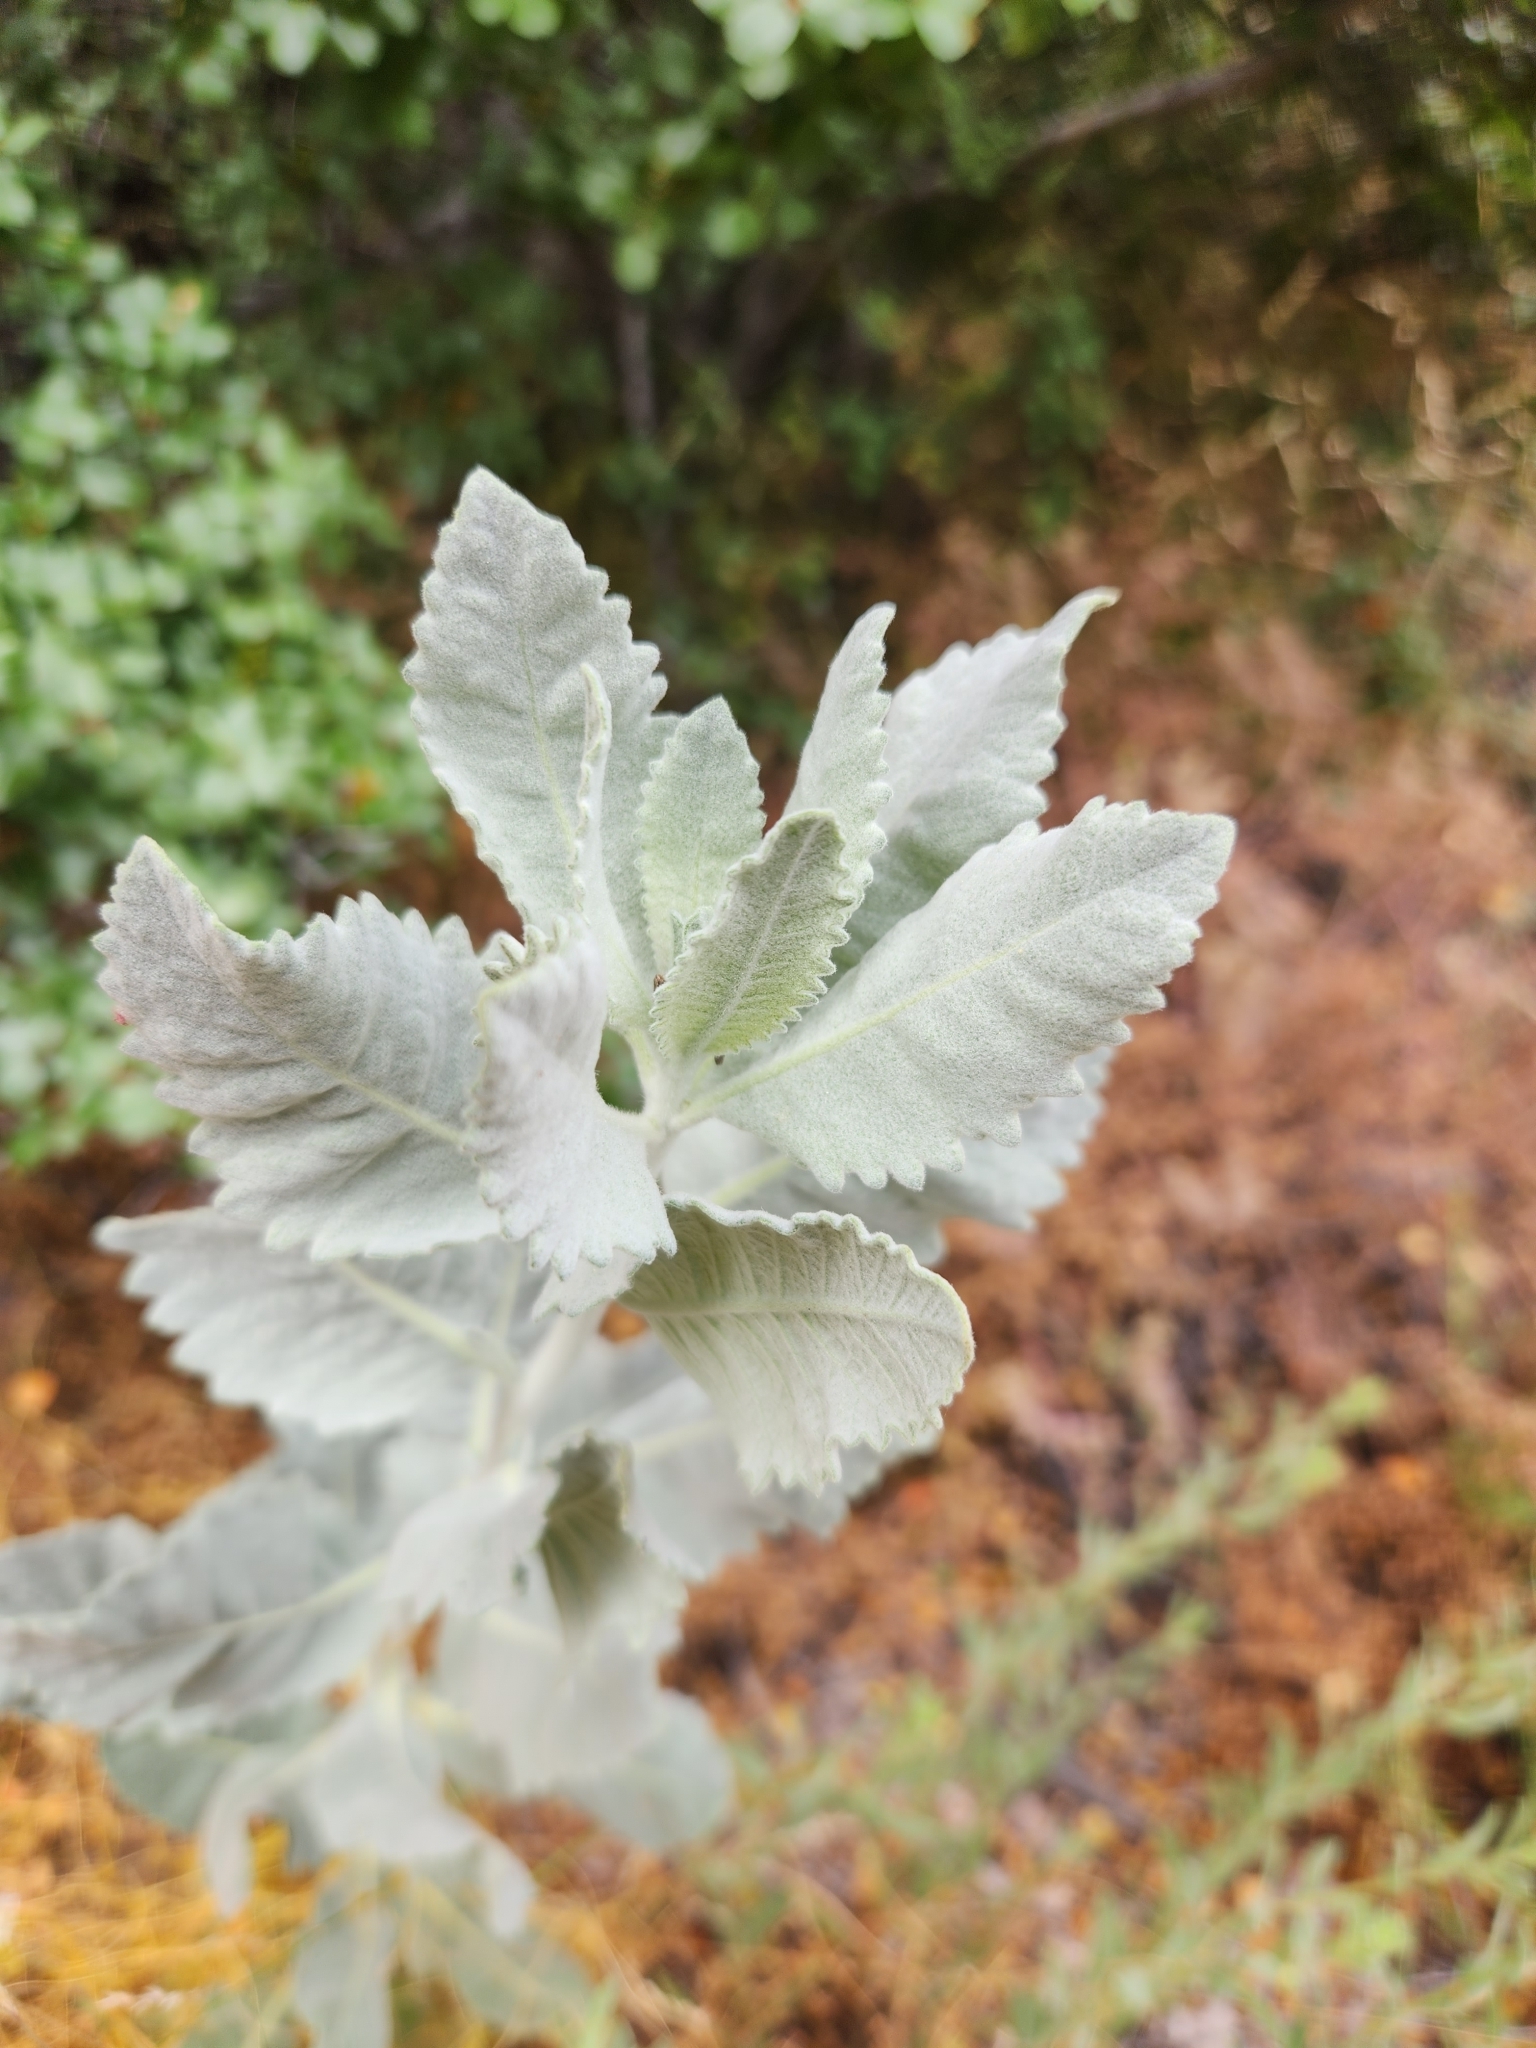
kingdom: Plantae
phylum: Tracheophyta
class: Magnoliopsida
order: Boraginales
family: Namaceae
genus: Eriodictyon
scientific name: Eriodictyon tomentosum
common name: Woolly yerba-santa
